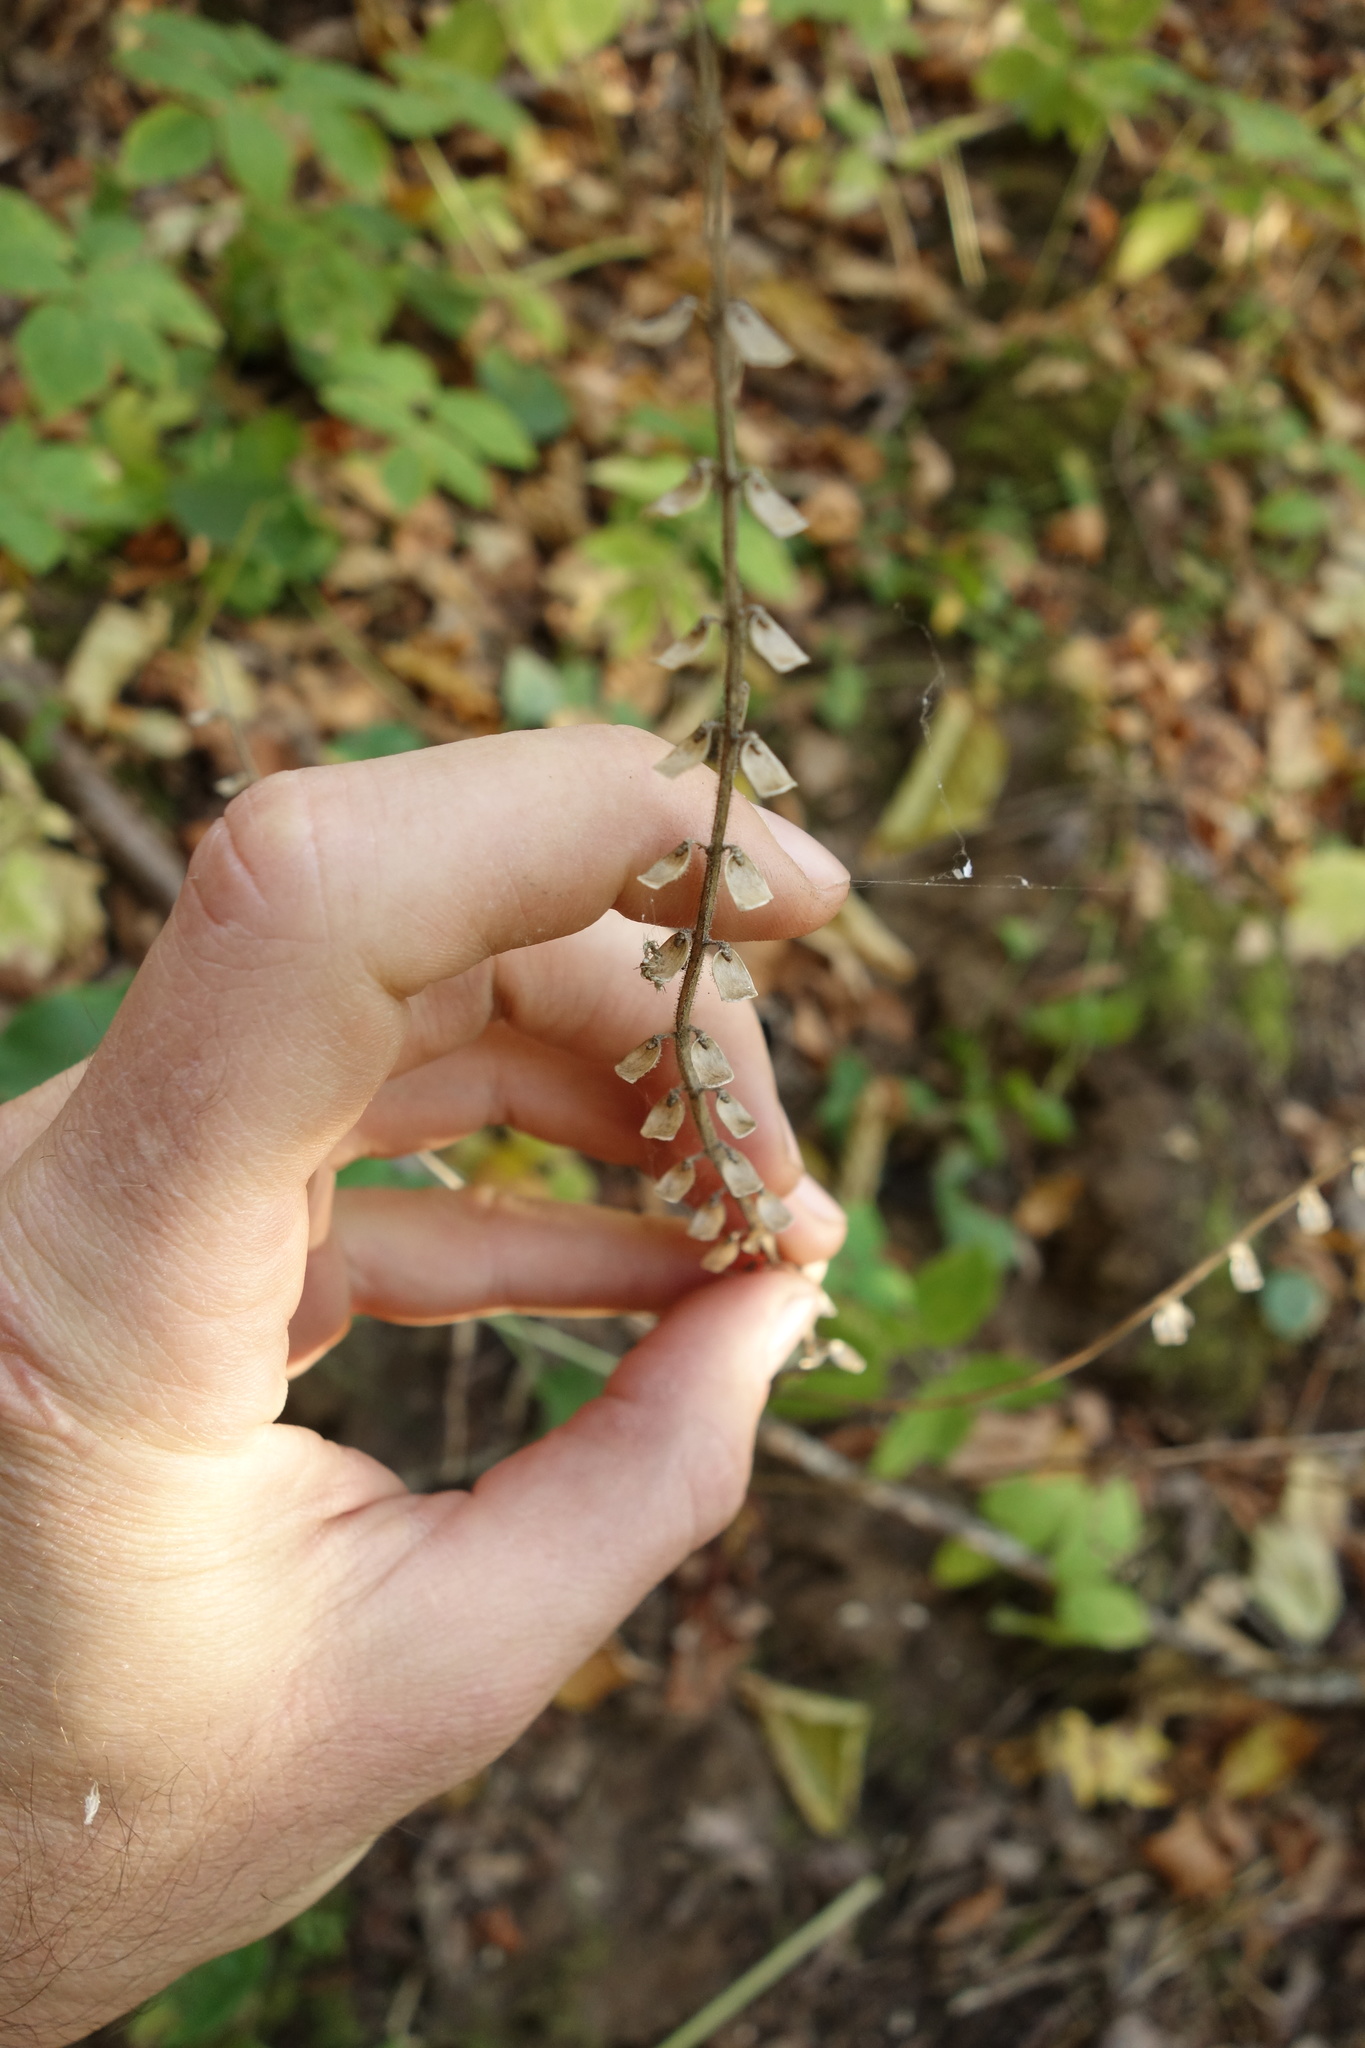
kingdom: Plantae
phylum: Tracheophyta
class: Magnoliopsida
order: Lamiales
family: Lamiaceae
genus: Scutellaria
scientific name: Scutellaria altissima
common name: Somerset skullcap
